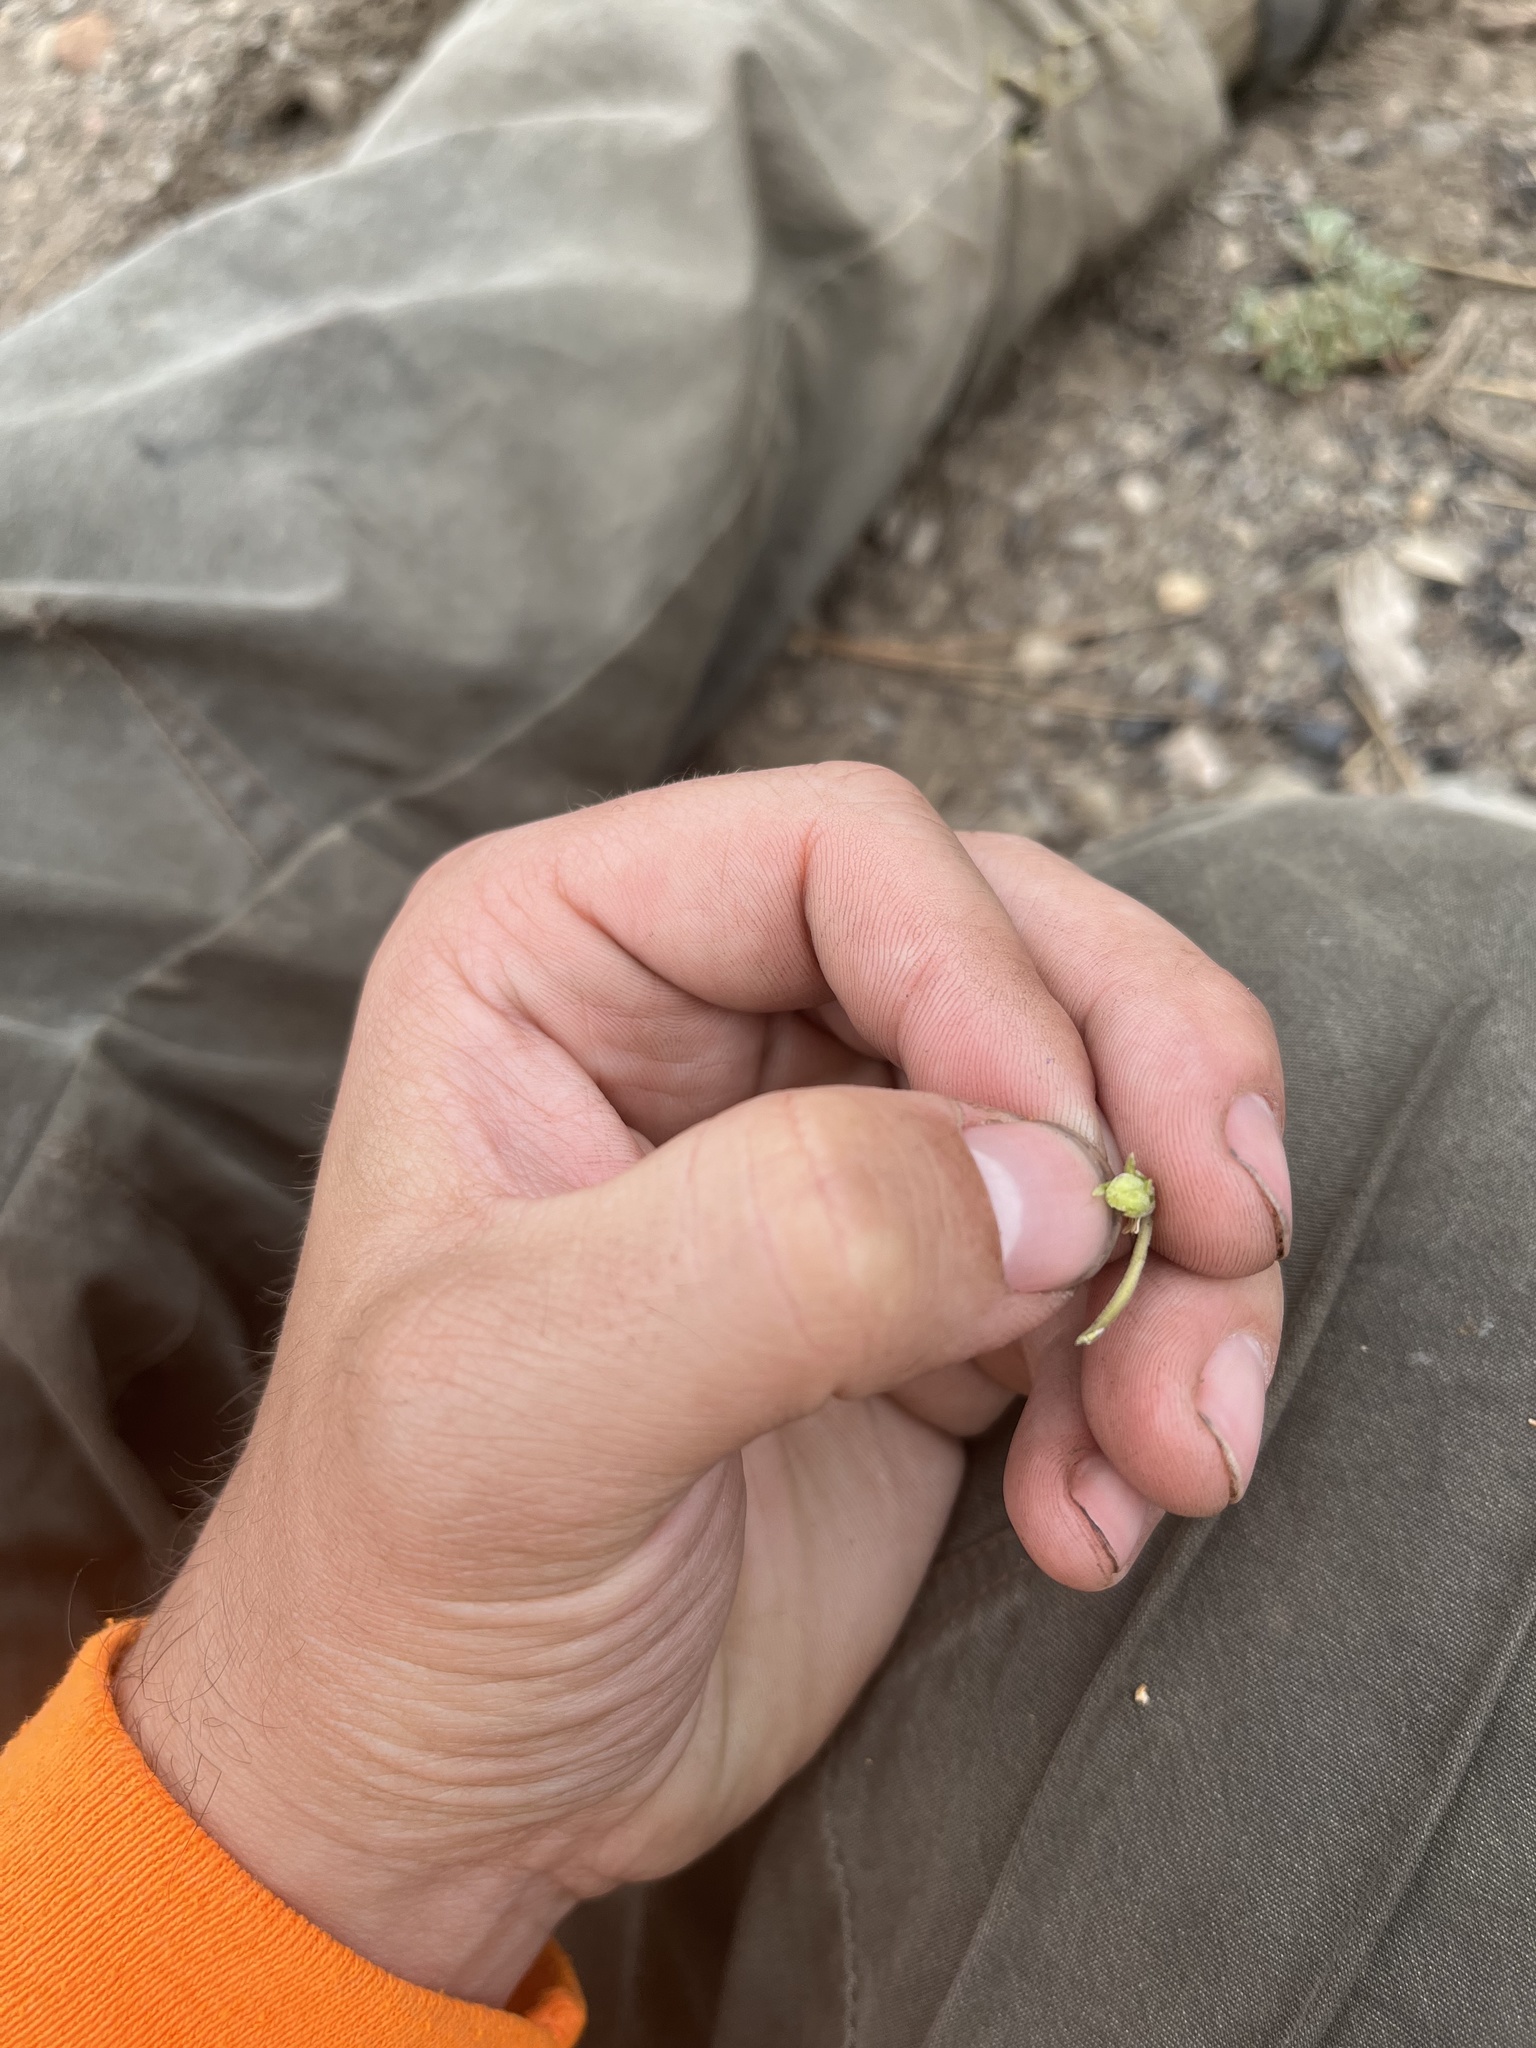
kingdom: Plantae
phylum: Tracheophyta
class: Magnoliopsida
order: Malpighiales
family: Violaceae
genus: Viola
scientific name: Viola purpurea
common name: Pine violet
